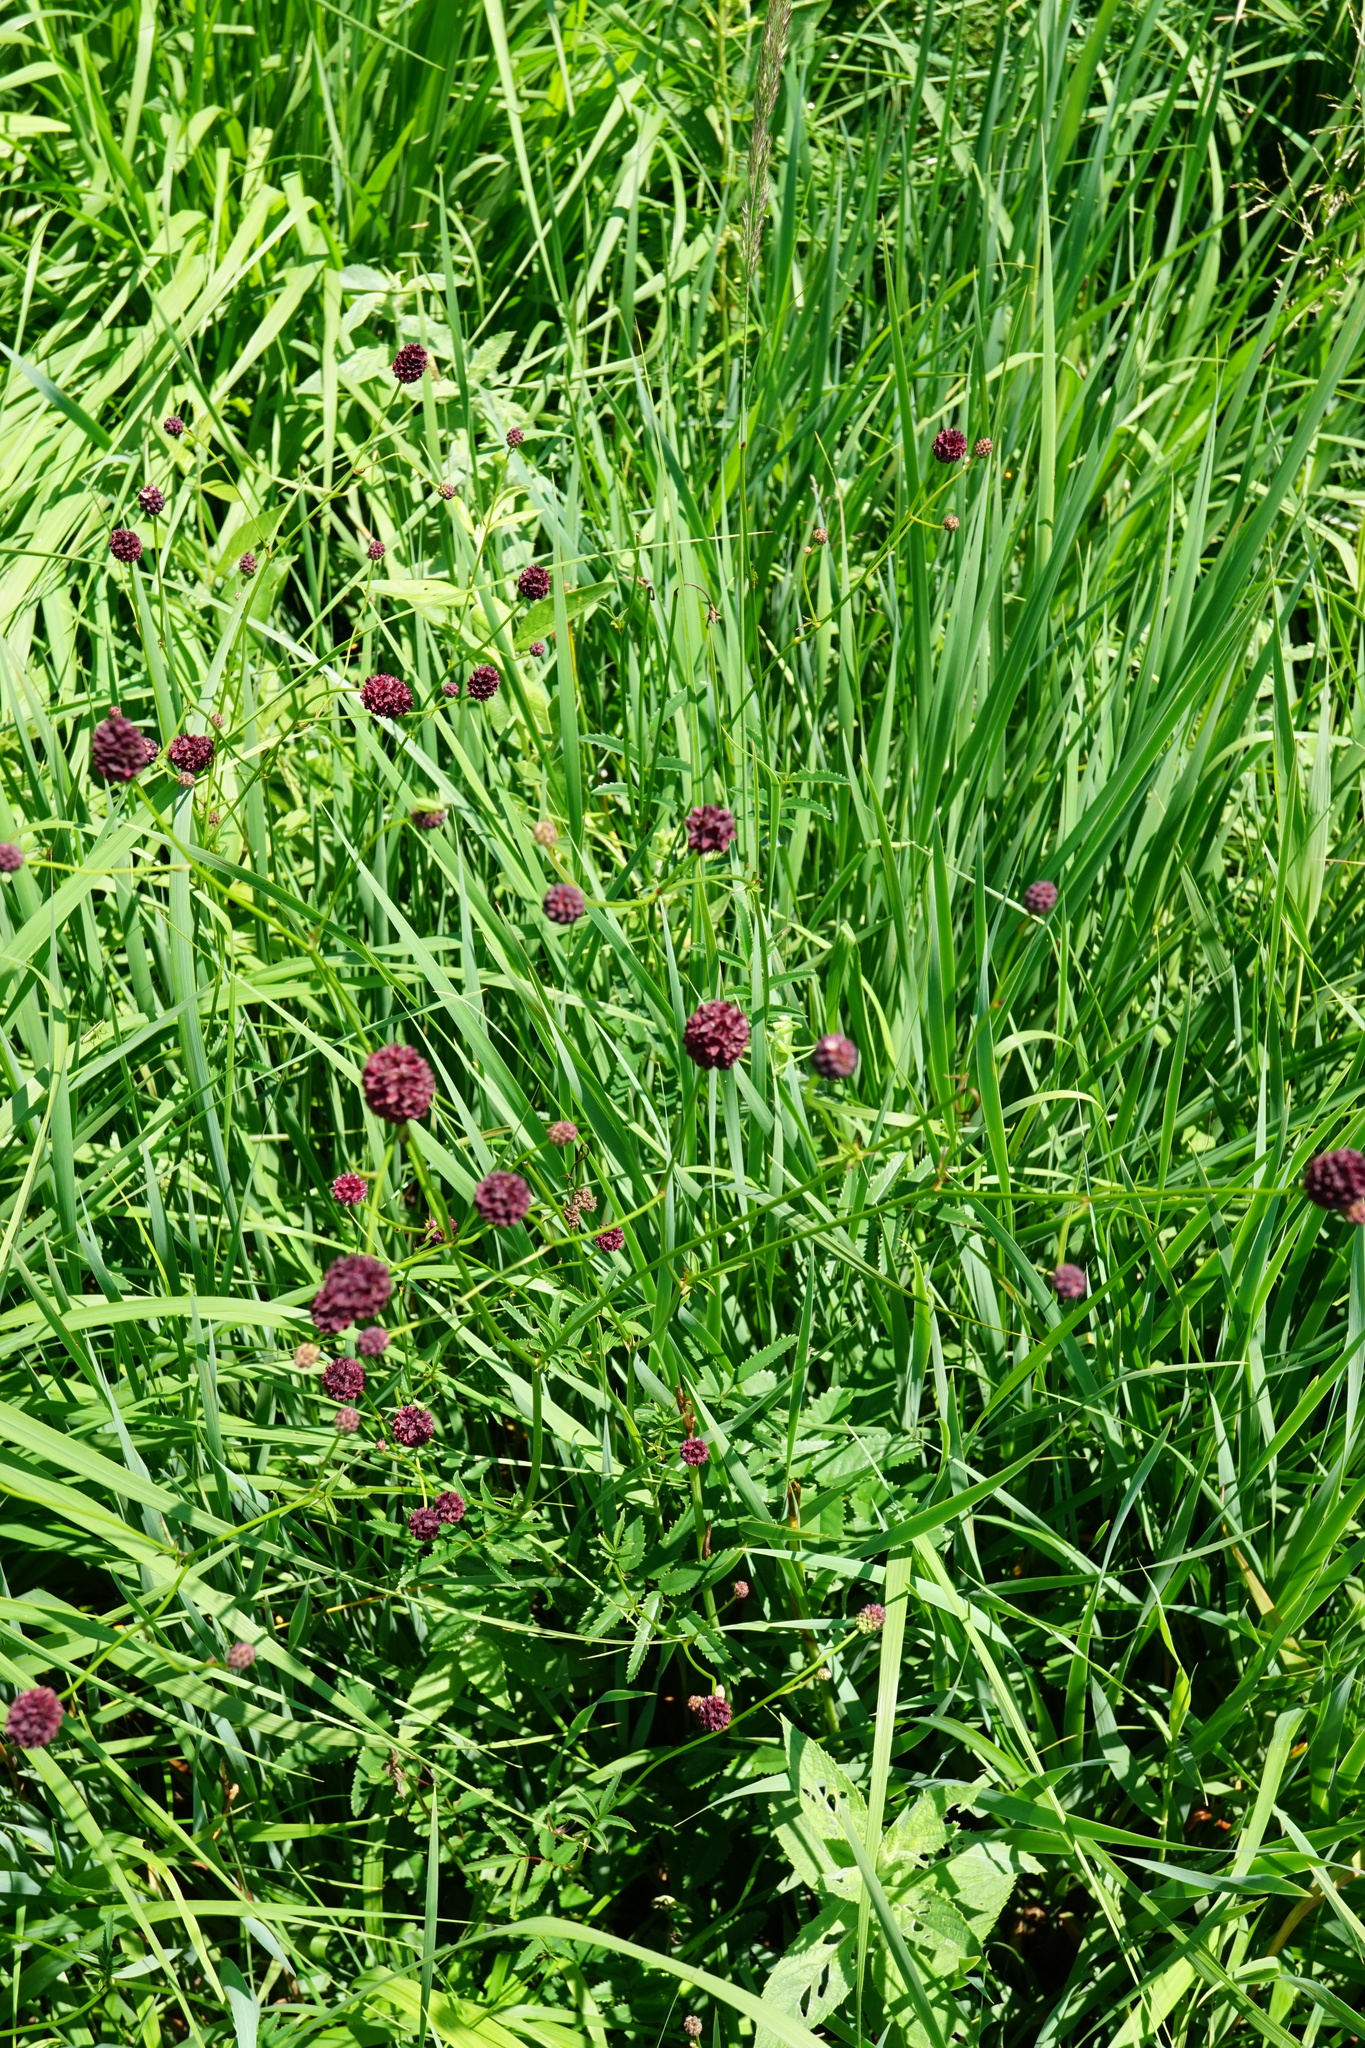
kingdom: Plantae
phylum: Tracheophyta
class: Magnoliopsida
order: Rosales
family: Rosaceae
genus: Sanguisorba
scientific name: Sanguisorba officinalis
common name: Great burnet
